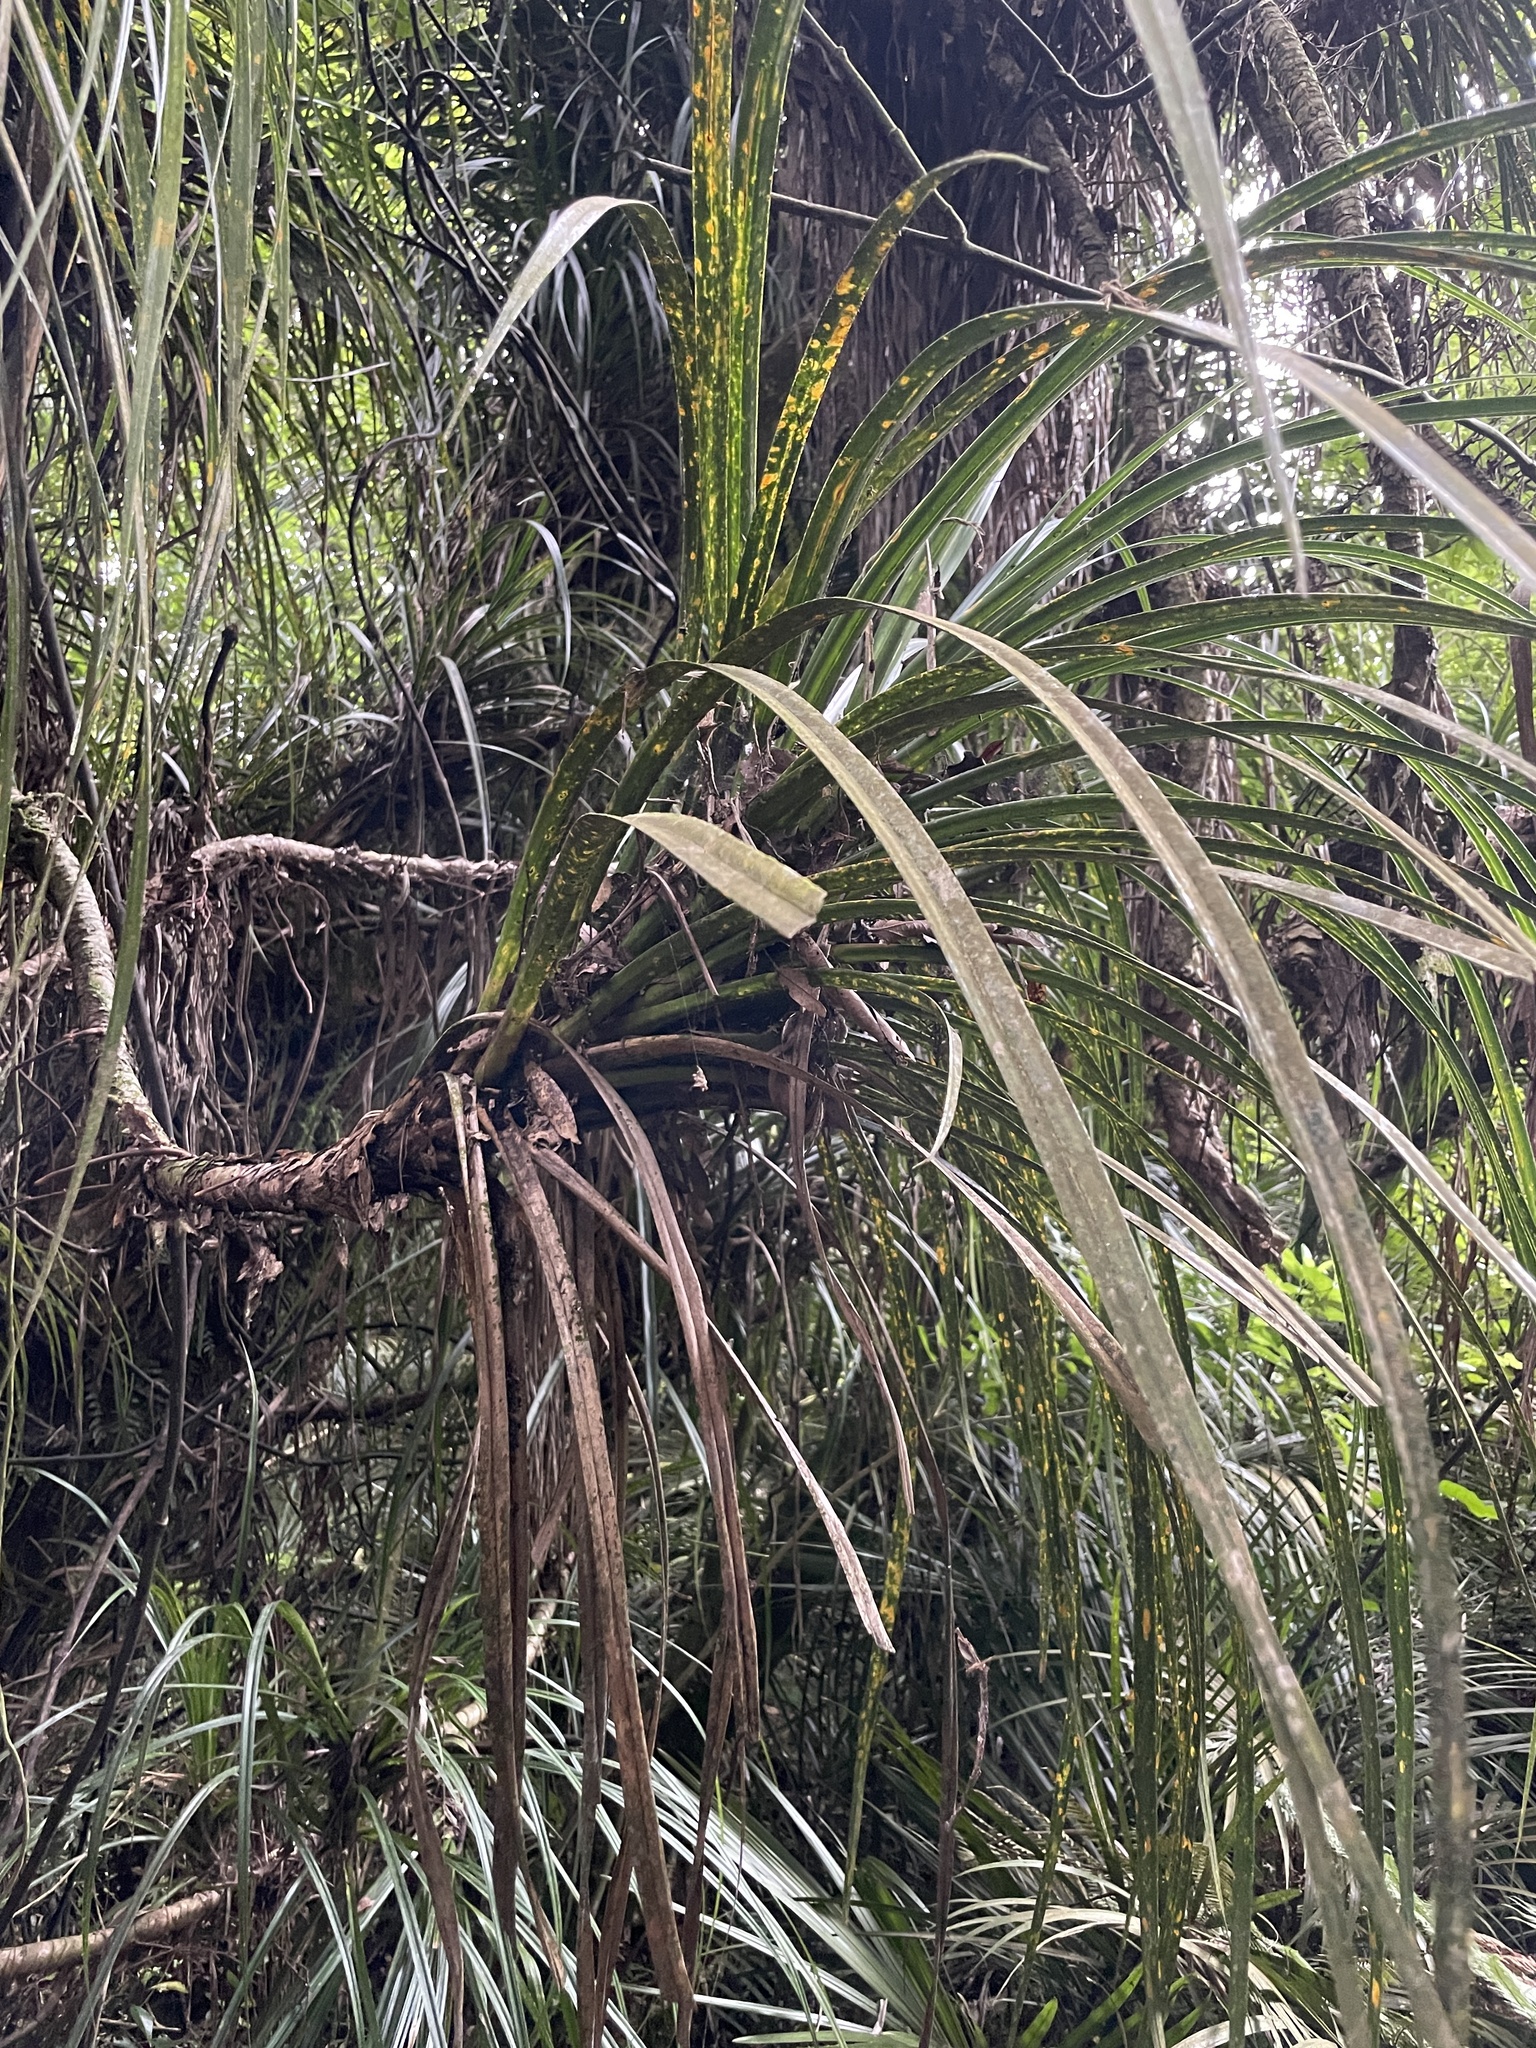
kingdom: Plantae
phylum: Tracheophyta
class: Liliopsida
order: Pandanales
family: Pandanaceae
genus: Freycinetia
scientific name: Freycinetia banksii
